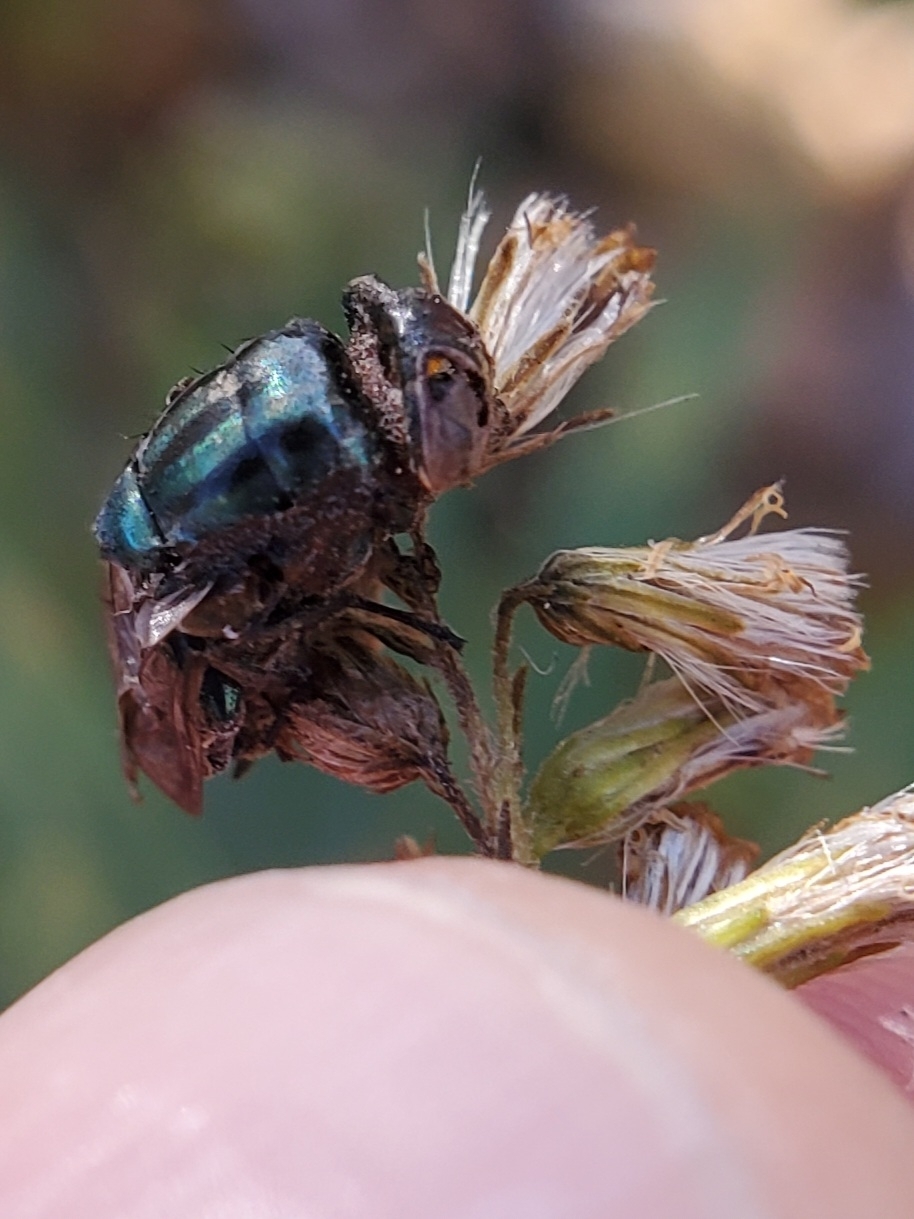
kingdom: Animalia
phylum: Arthropoda
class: Insecta
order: Diptera
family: Calliphoridae
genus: Cochliomyia
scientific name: Cochliomyia macellaria
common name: Secondary screwworm
